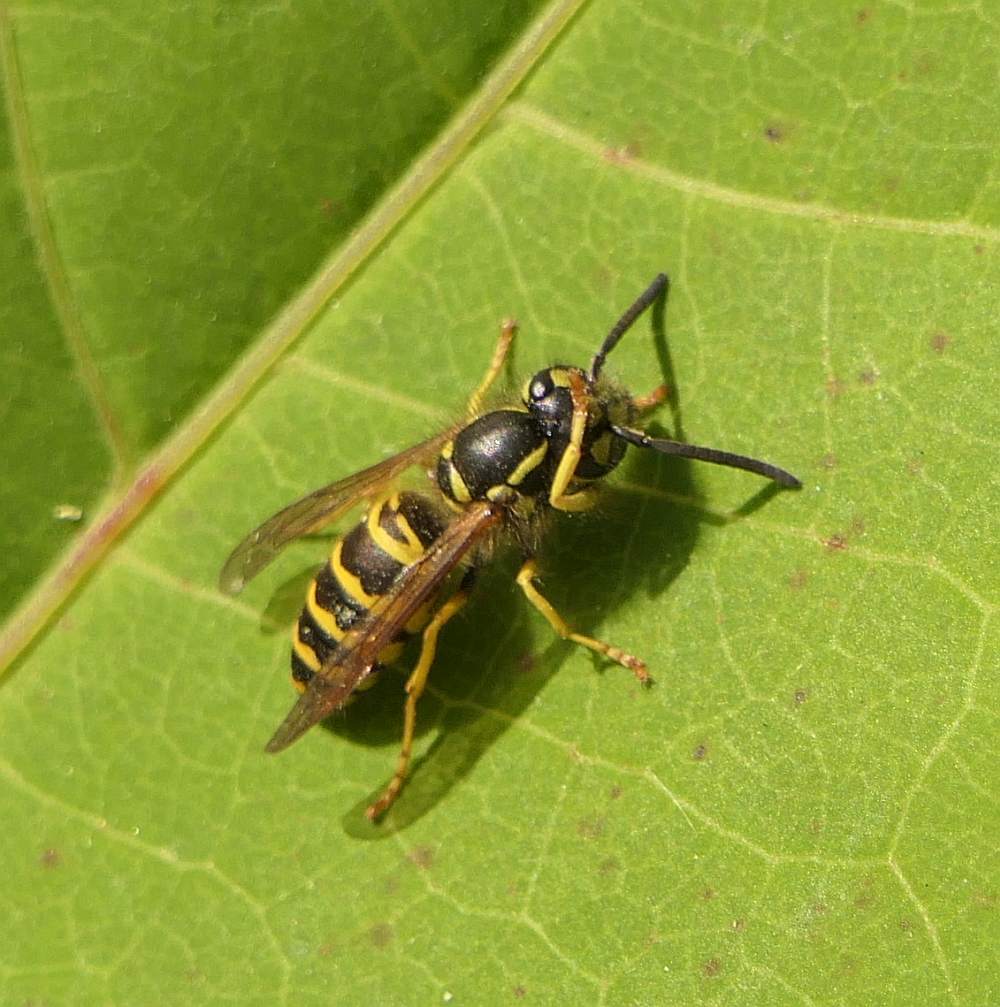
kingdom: Animalia
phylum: Arthropoda
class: Insecta
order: Hymenoptera
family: Vespidae
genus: Vespula
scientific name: Vespula maculifrons
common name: Eastern yellowjacket
